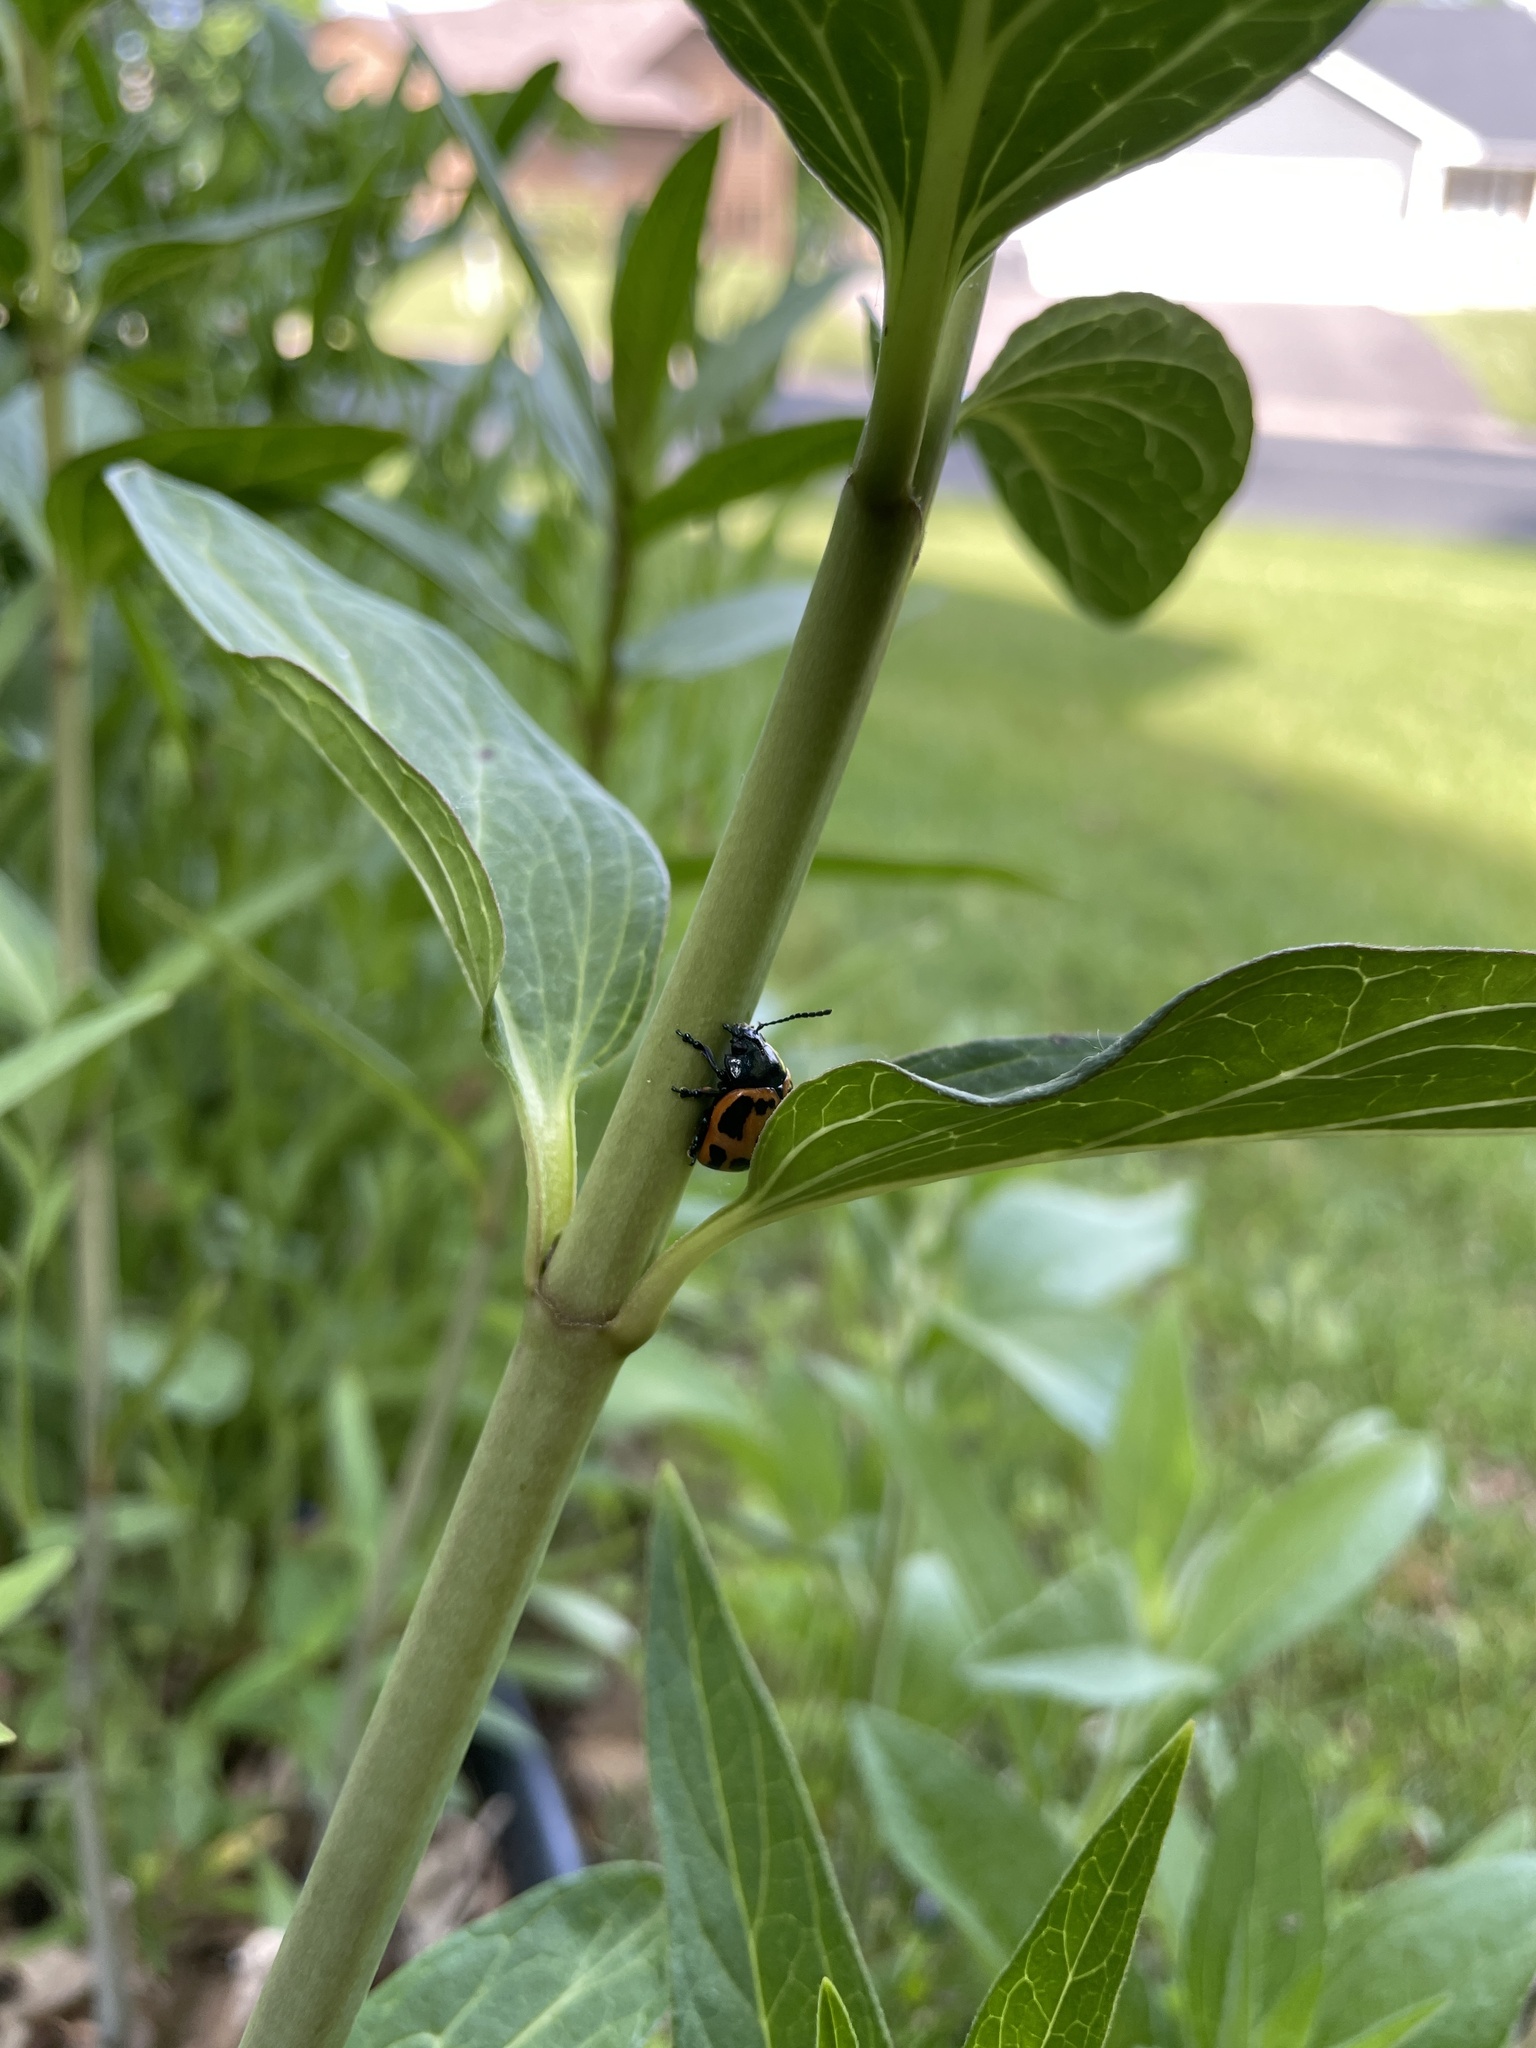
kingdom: Animalia
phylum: Arthropoda
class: Insecta
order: Coleoptera
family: Chrysomelidae
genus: Labidomera
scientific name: Labidomera clivicollis
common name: Swamp milkweed leaf beetle
